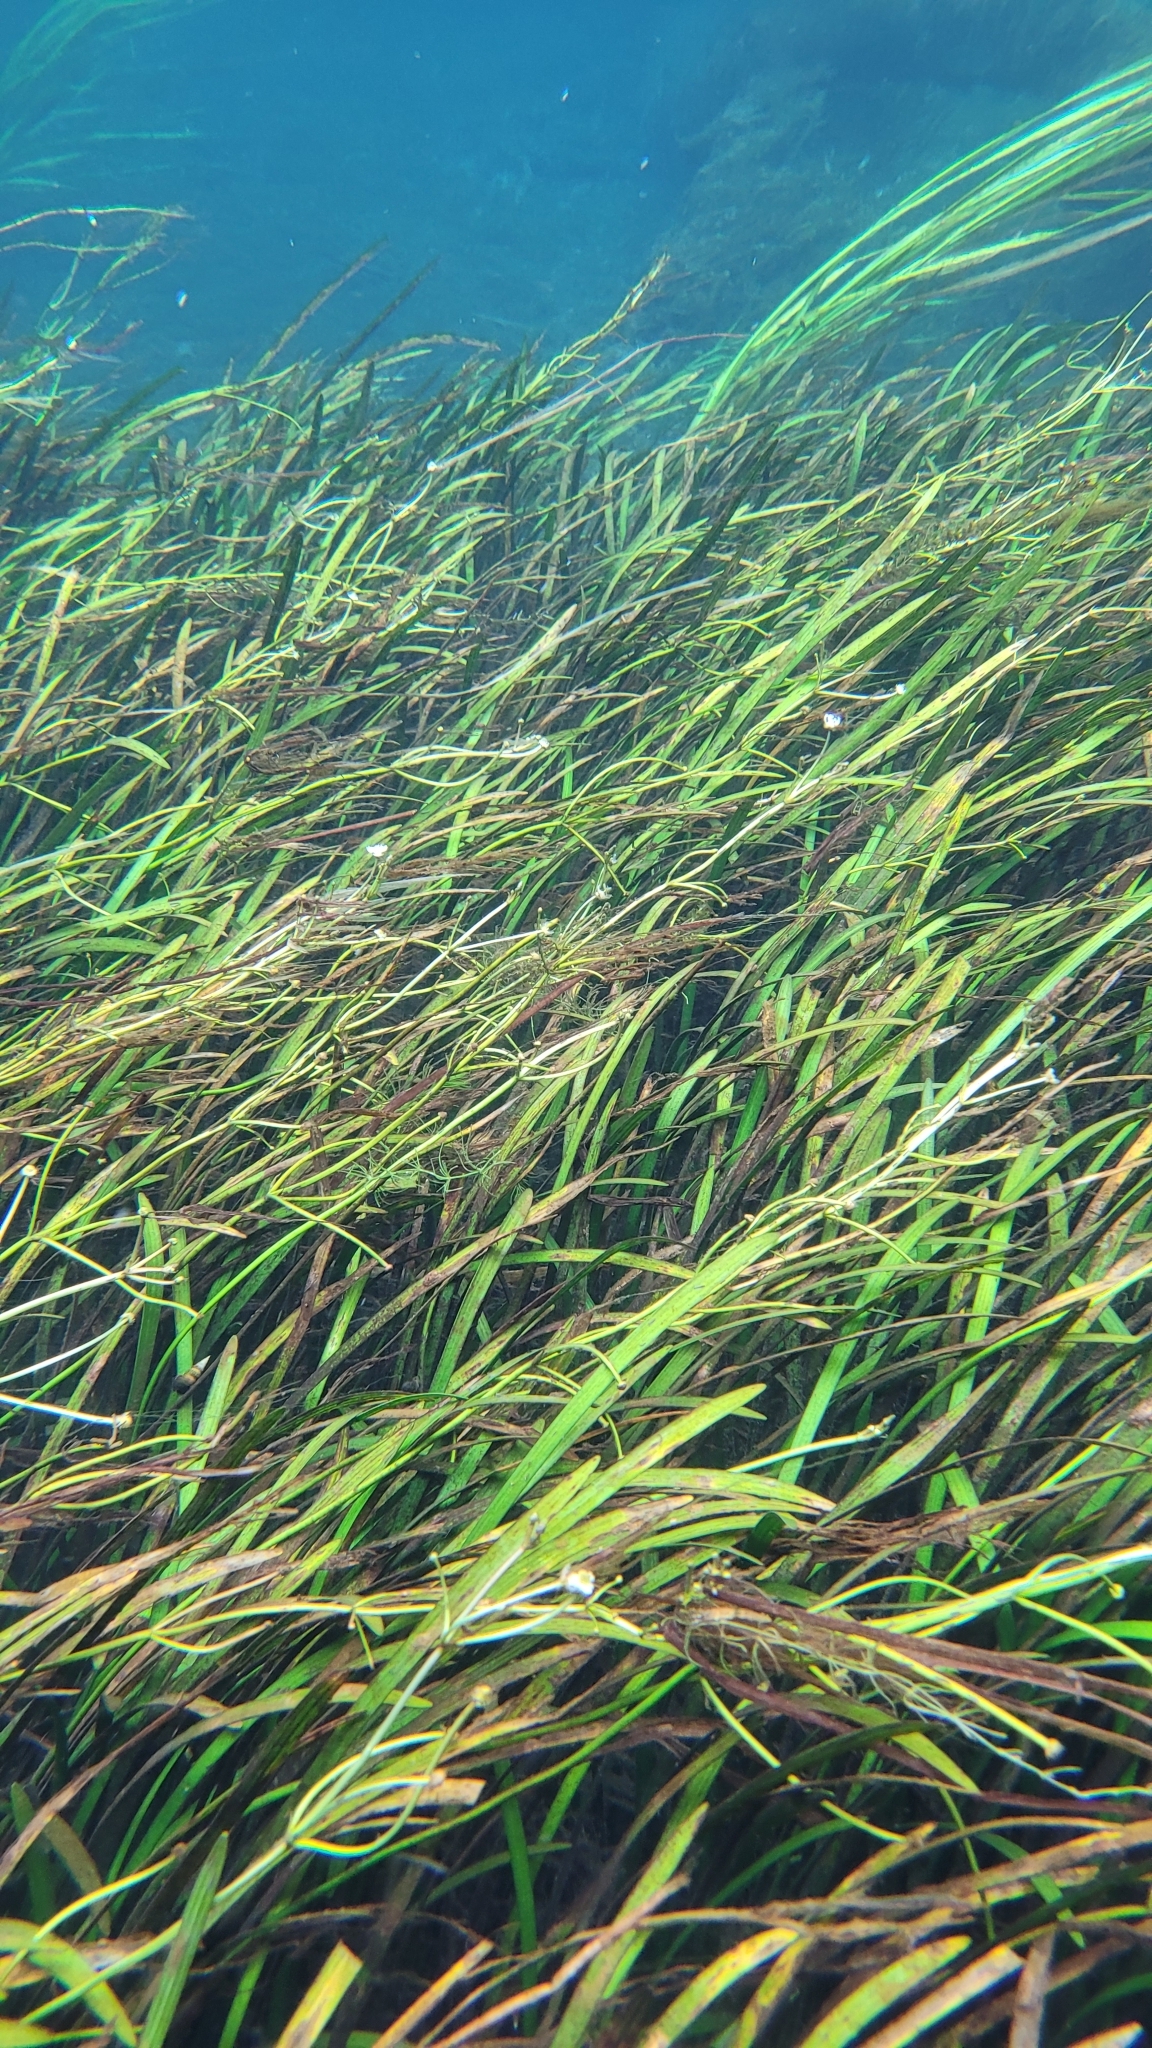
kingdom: Plantae
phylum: Tracheophyta
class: Liliopsida
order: Alismatales
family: Alismataceae
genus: Sagittaria
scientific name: Sagittaria kurziana
